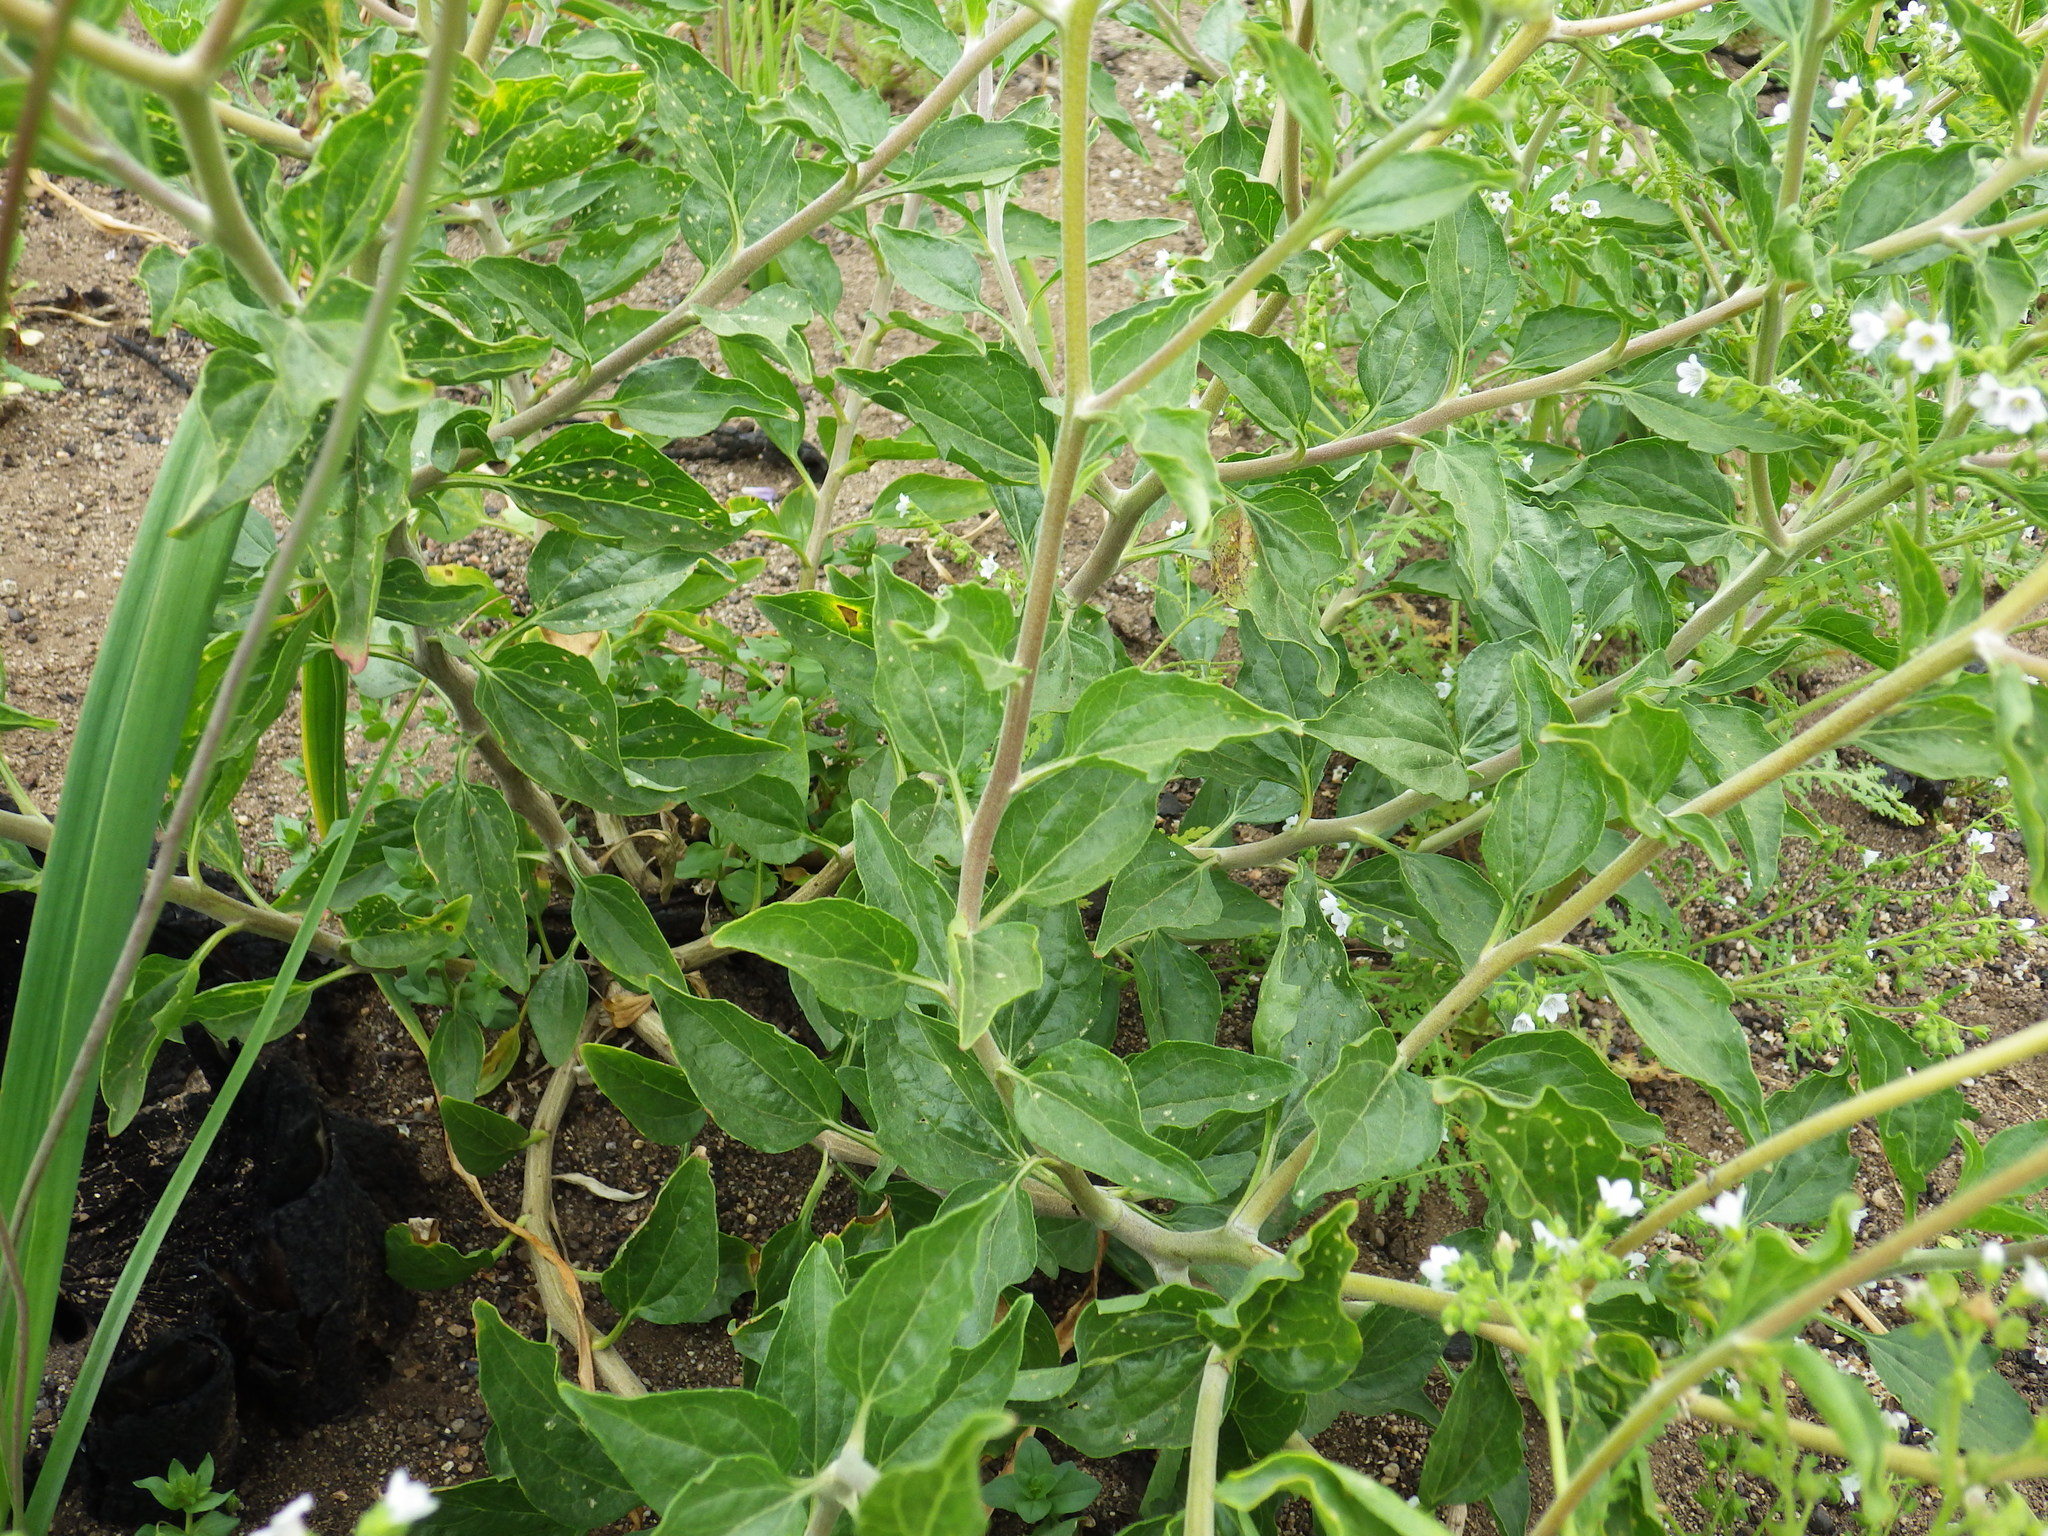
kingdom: Plantae
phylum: Tracheophyta
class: Magnoliopsida
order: Asterales
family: Asteraceae
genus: Encelia
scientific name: Encelia californica
